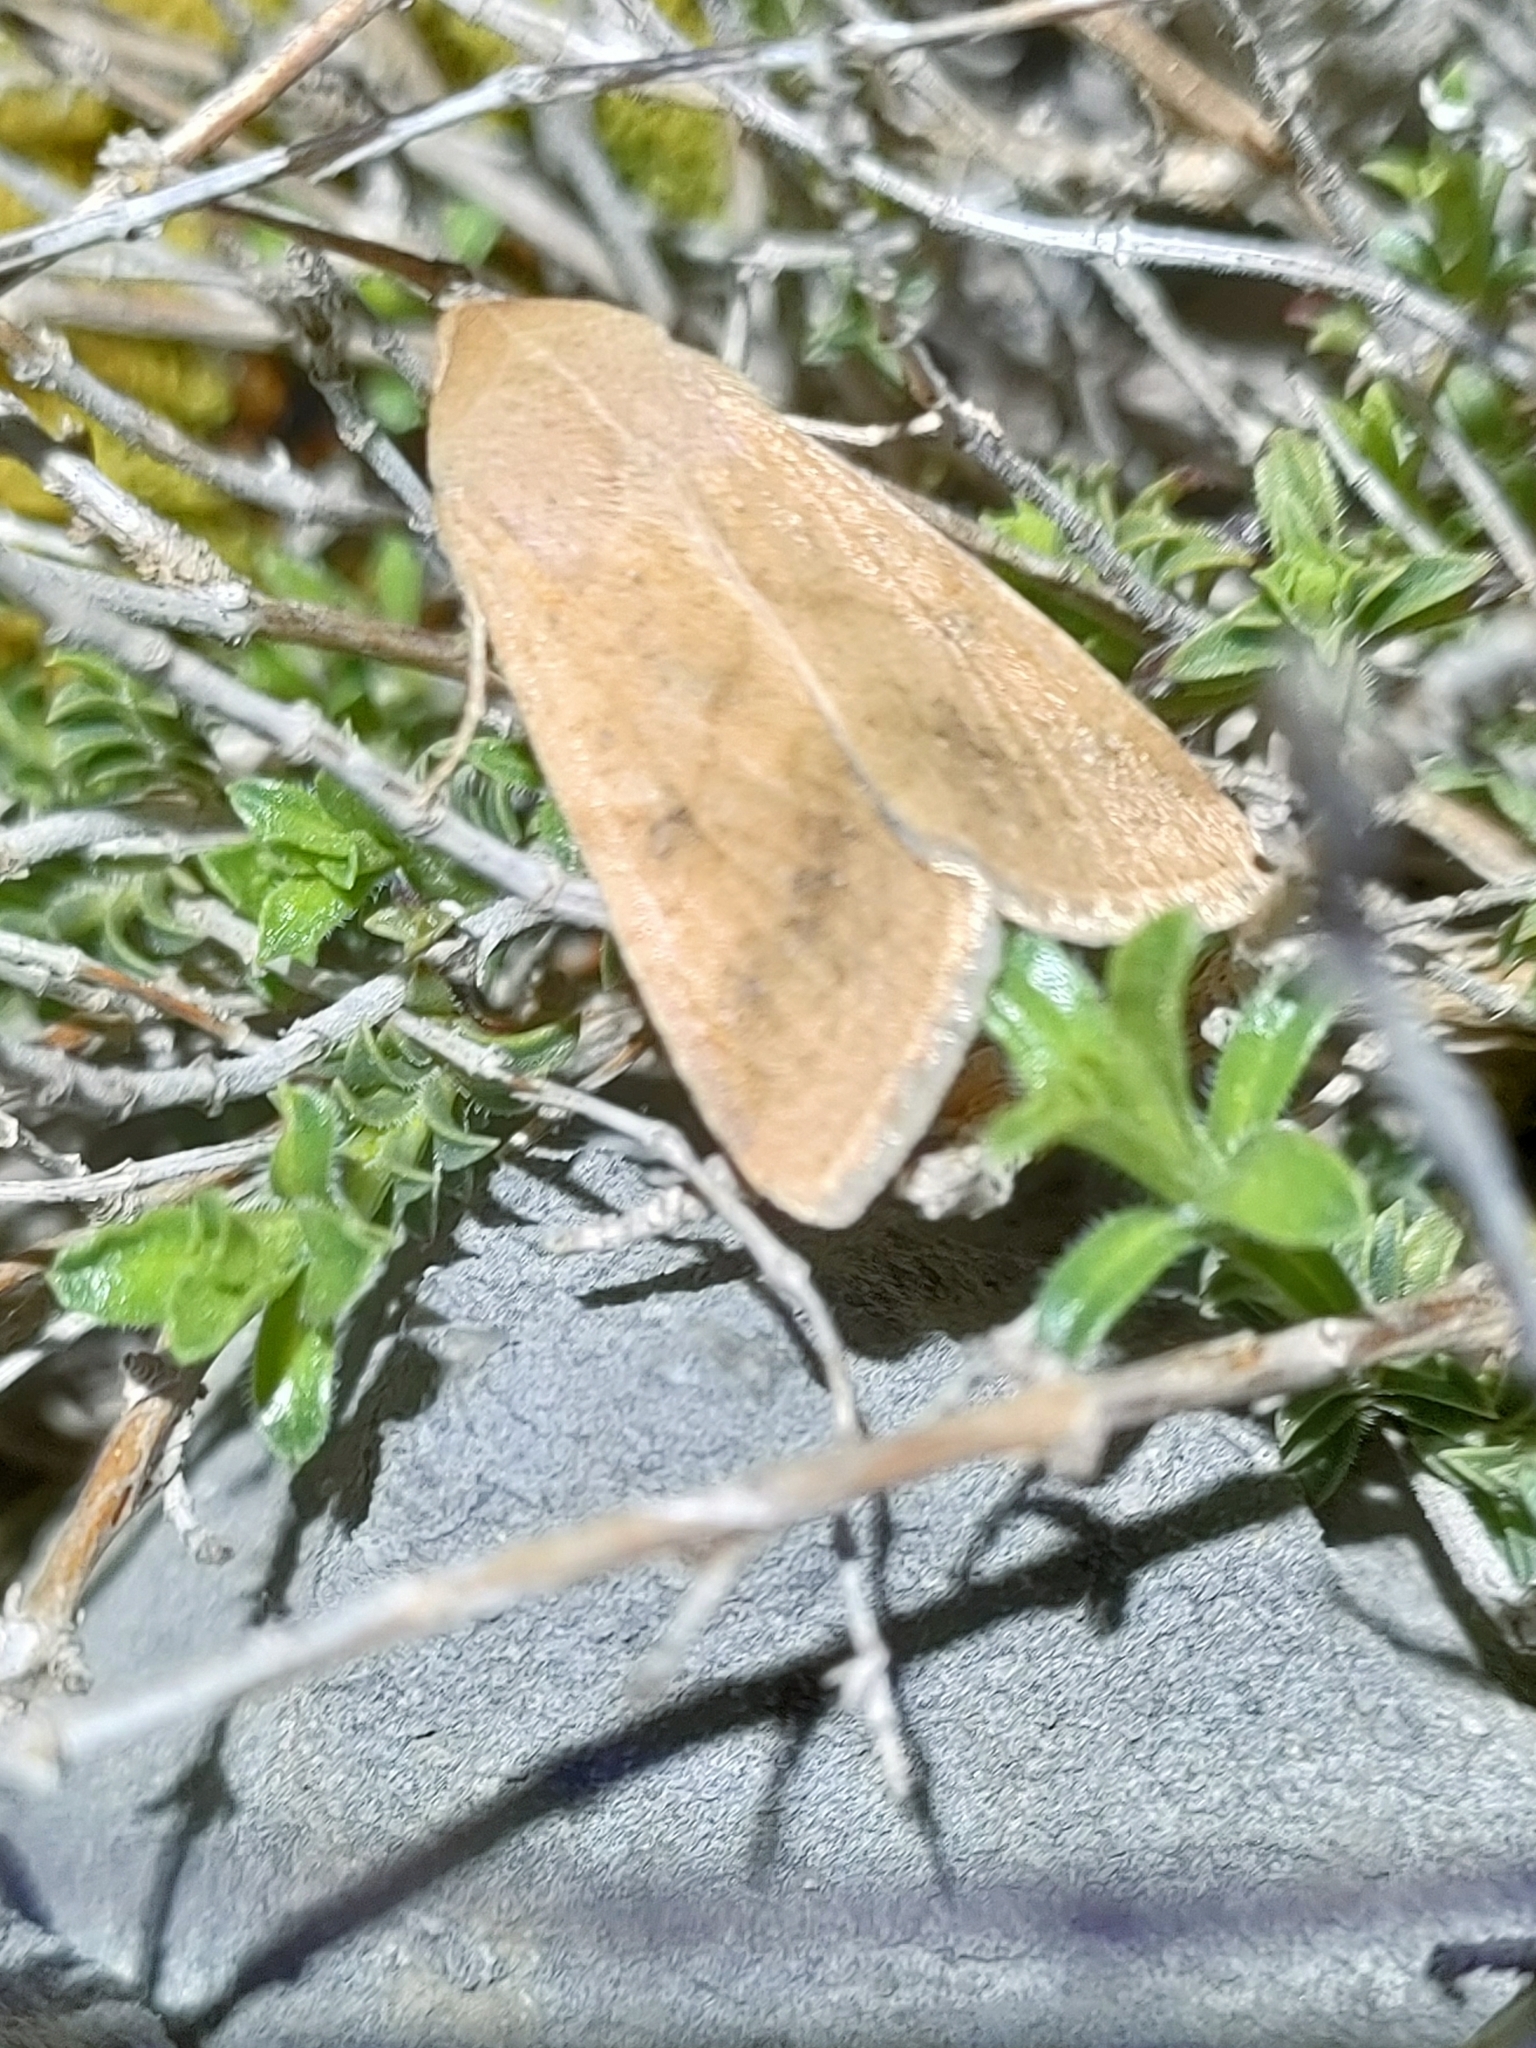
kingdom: Animalia
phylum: Arthropoda
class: Insecta
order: Lepidoptera
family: Noctuidae
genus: Helicoverpa
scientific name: Helicoverpa armigera
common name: Cotton bollworm
